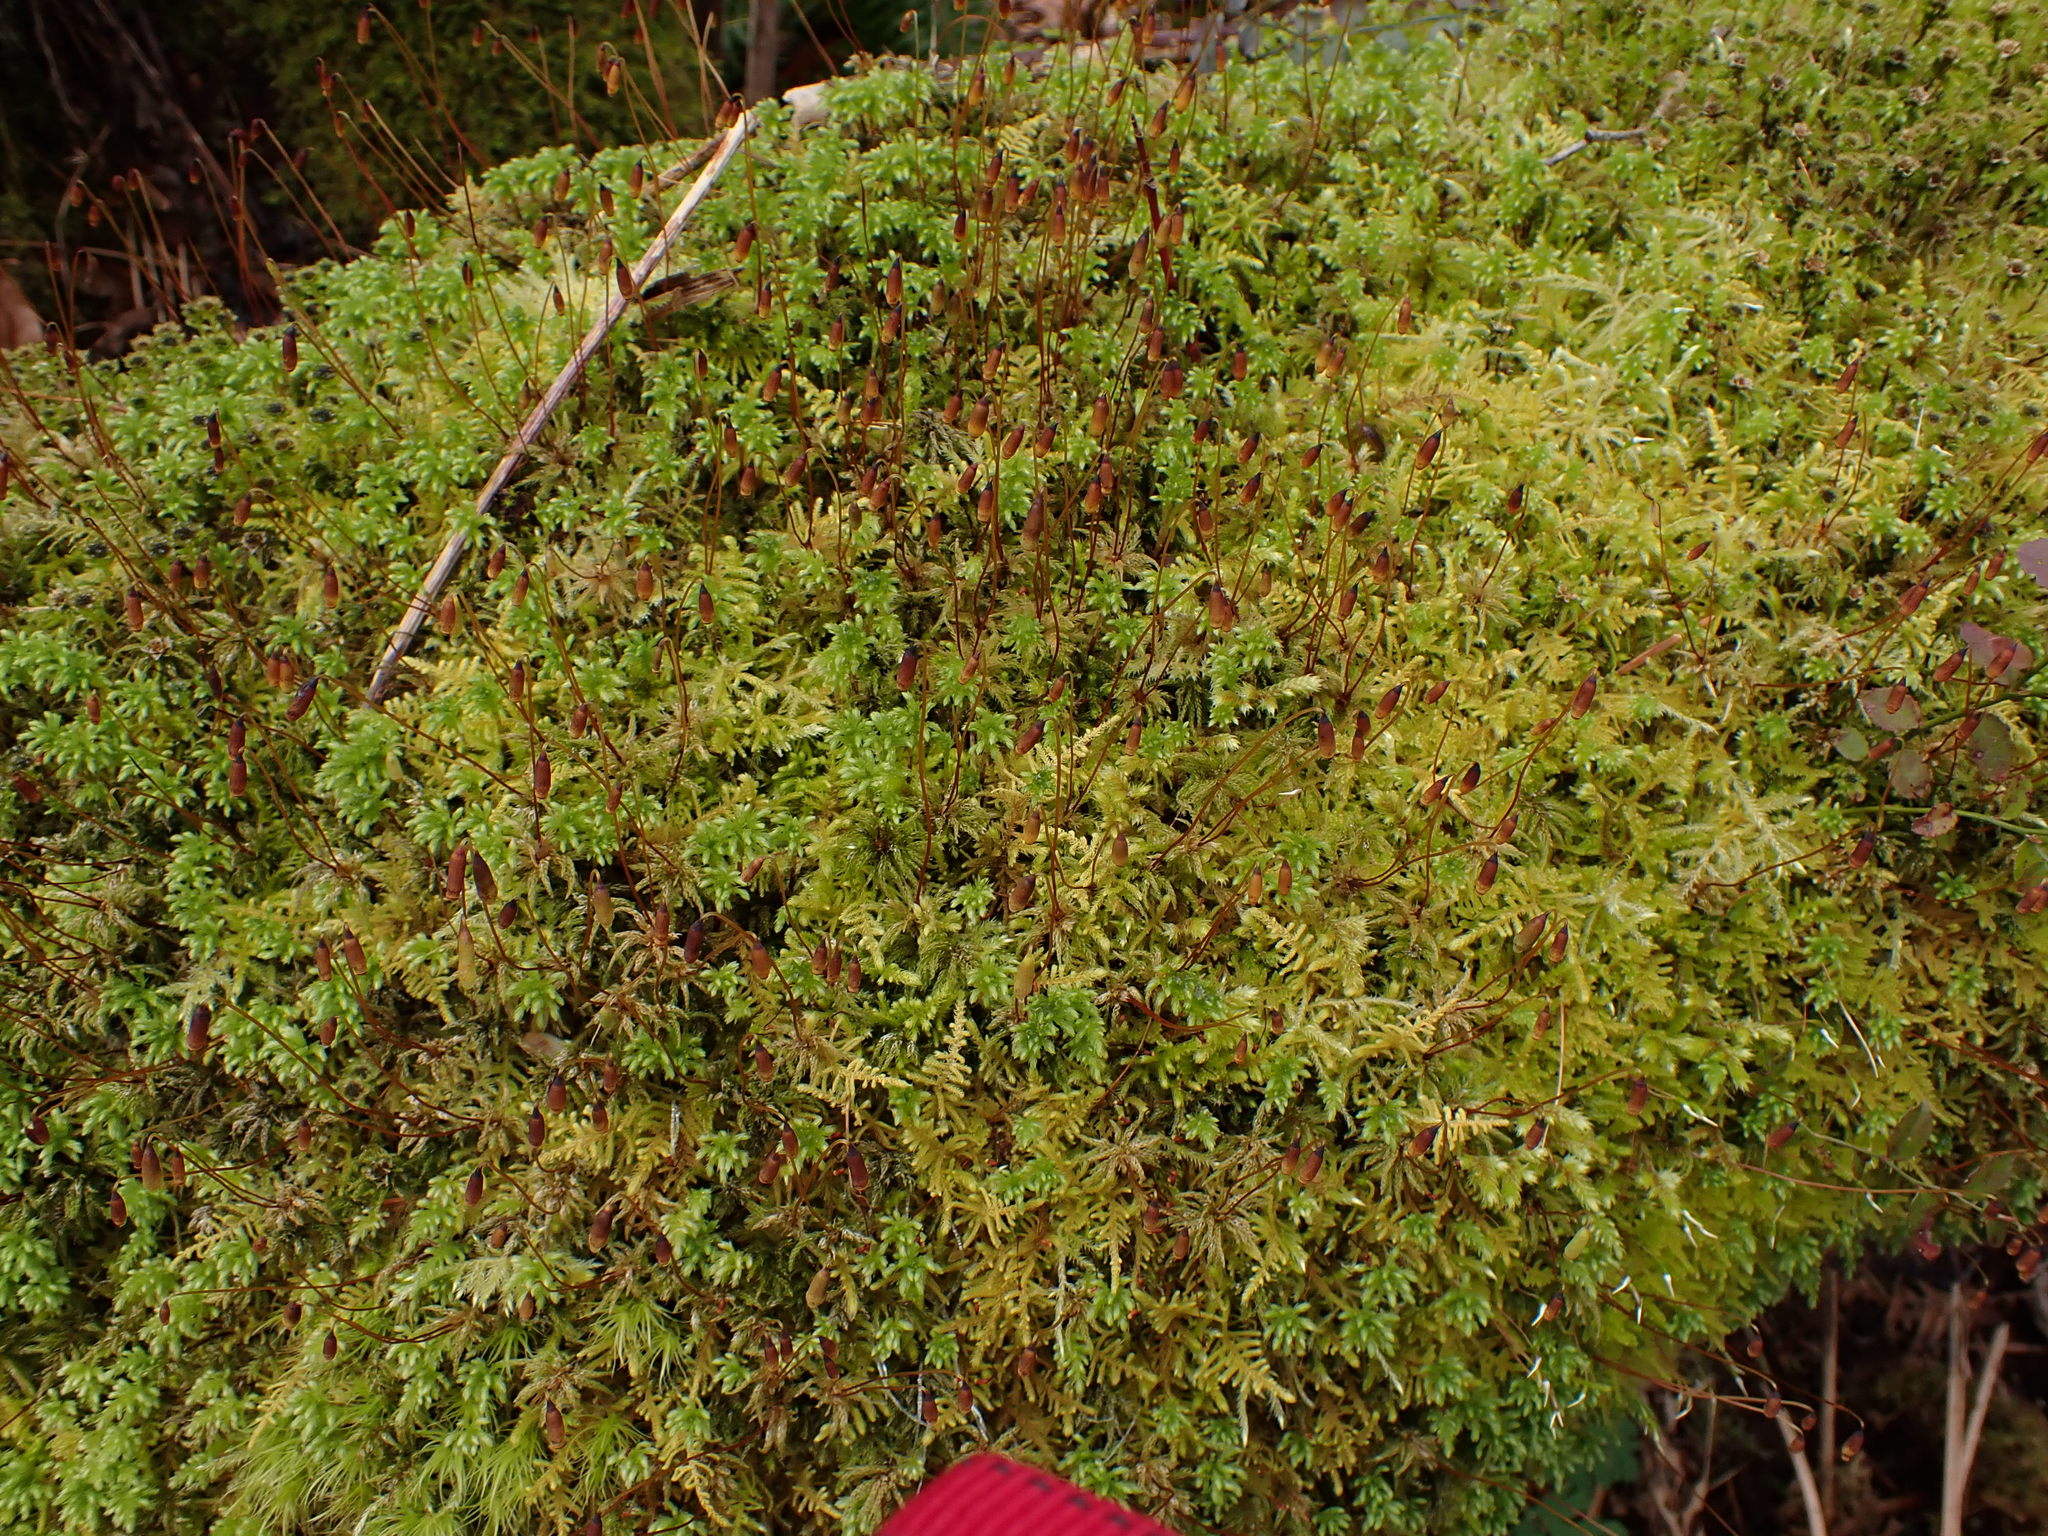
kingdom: Plantae
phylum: Bryophyta
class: Bryopsida
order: Bryales
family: Mniaceae
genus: Leucolepis
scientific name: Leucolepis acanthoneura
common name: Leucolepis umbrella moss
